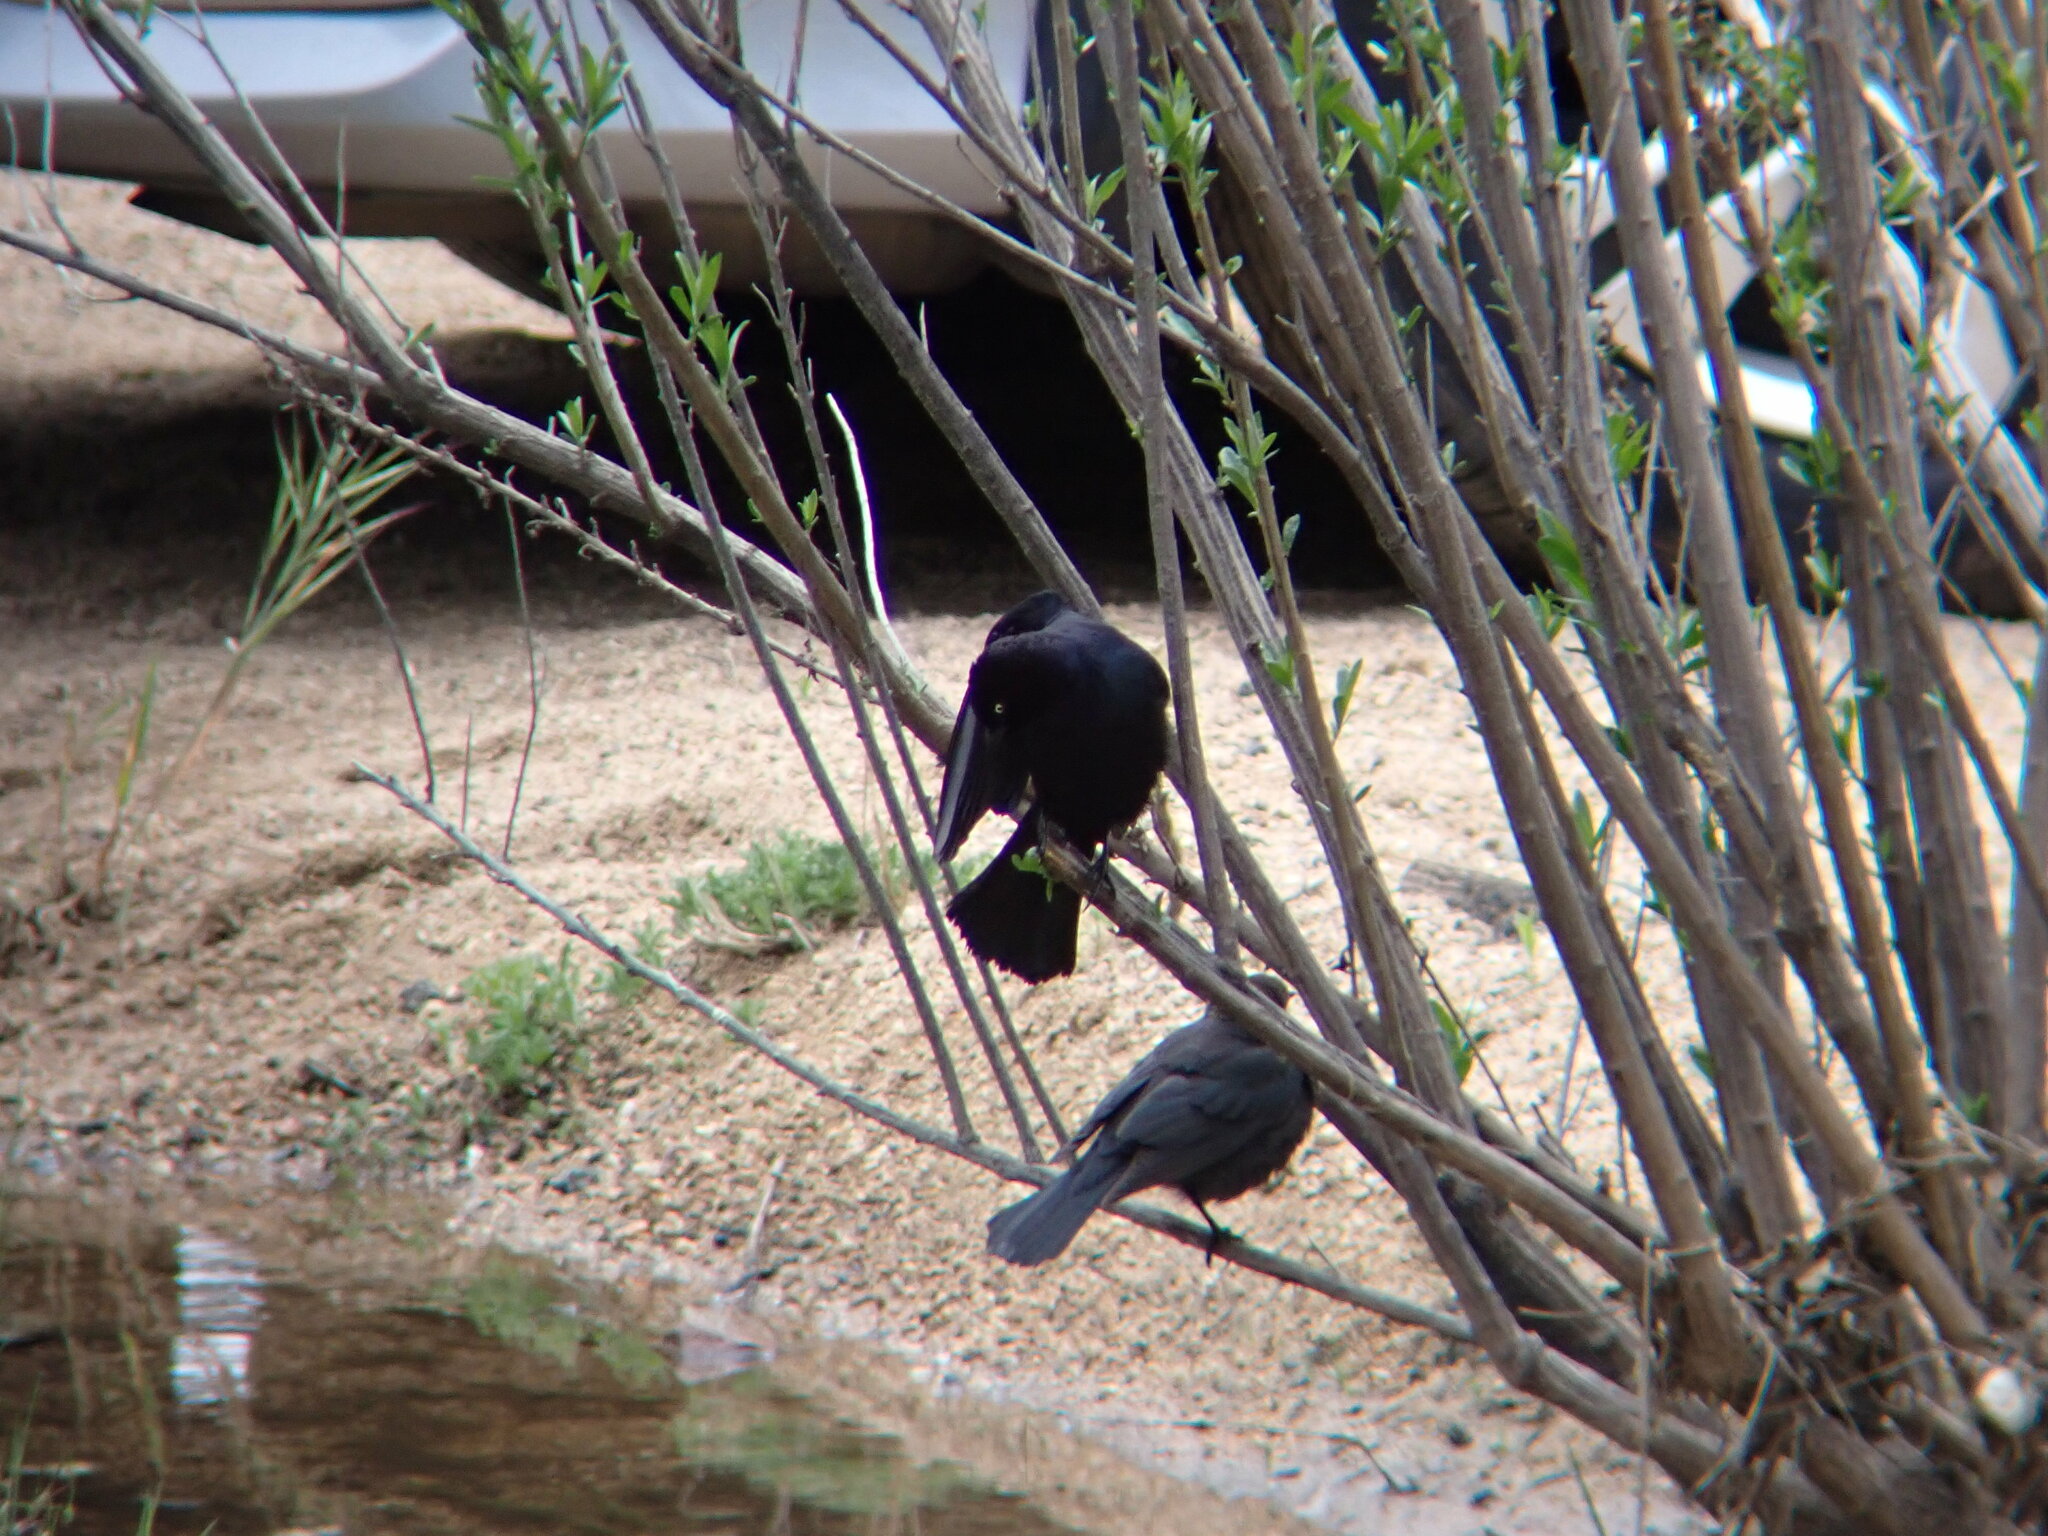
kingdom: Animalia
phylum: Chordata
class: Aves
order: Passeriformes
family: Icteridae
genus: Euphagus
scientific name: Euphagus cyanocephalus
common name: Brewer's blackbird
